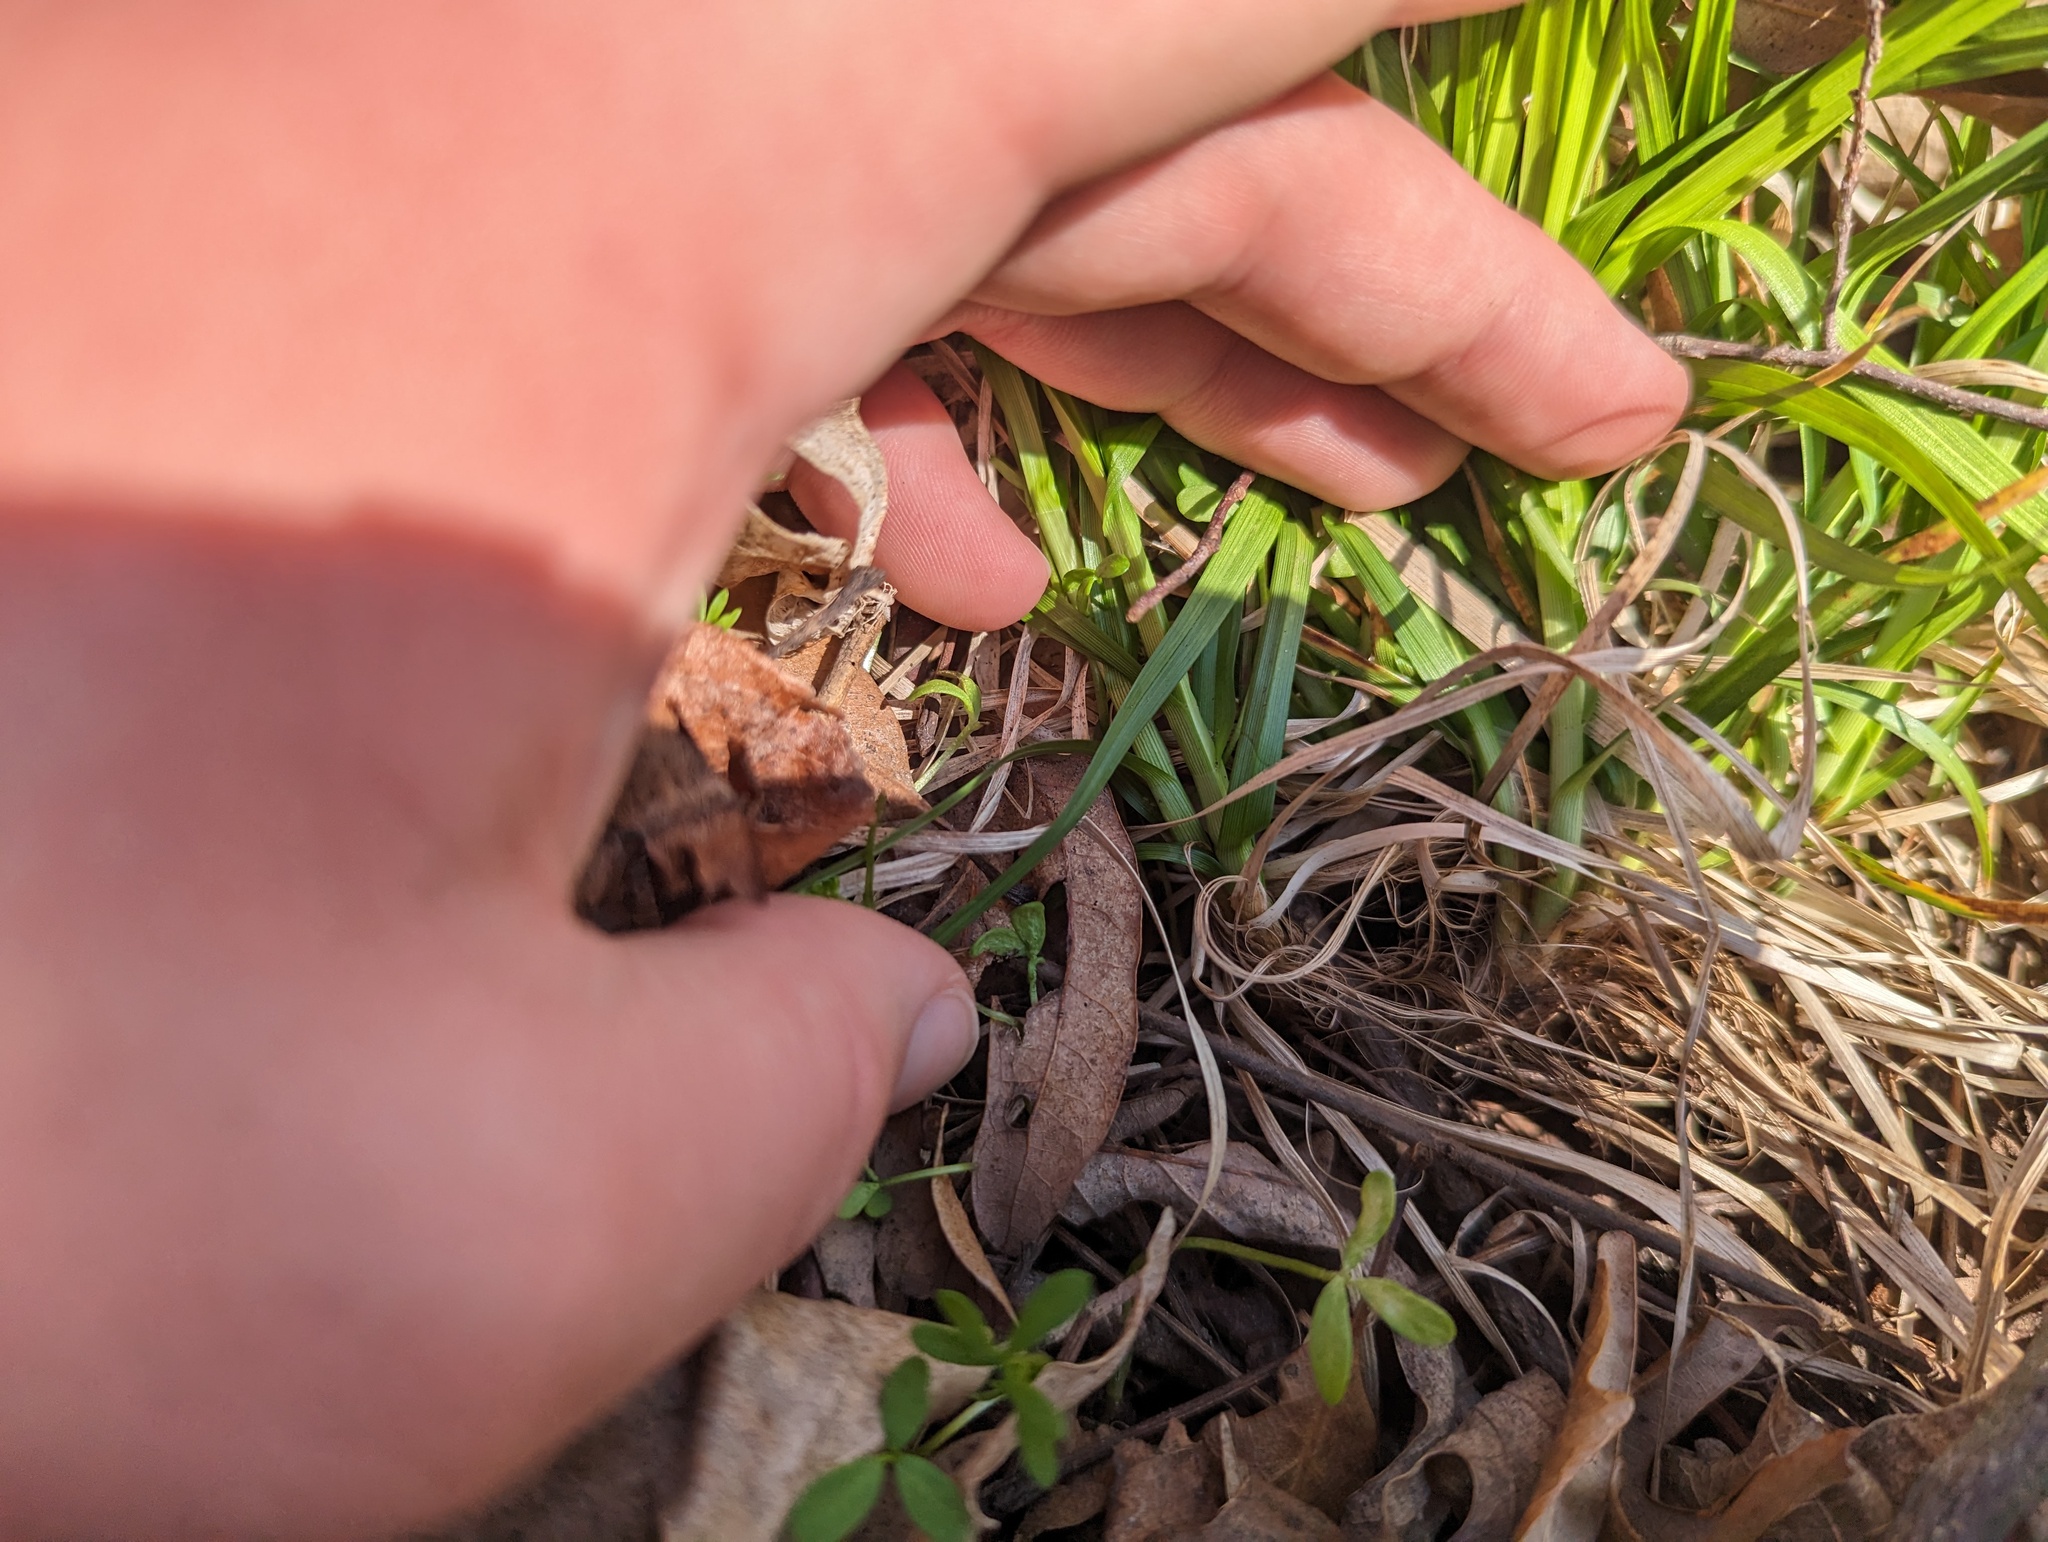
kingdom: Plantae
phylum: Tracheophyta
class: Liliopsida
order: Poales
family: Cyperaceae
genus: Carex
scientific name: Carex sprengelii
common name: Long-beaked sedge
